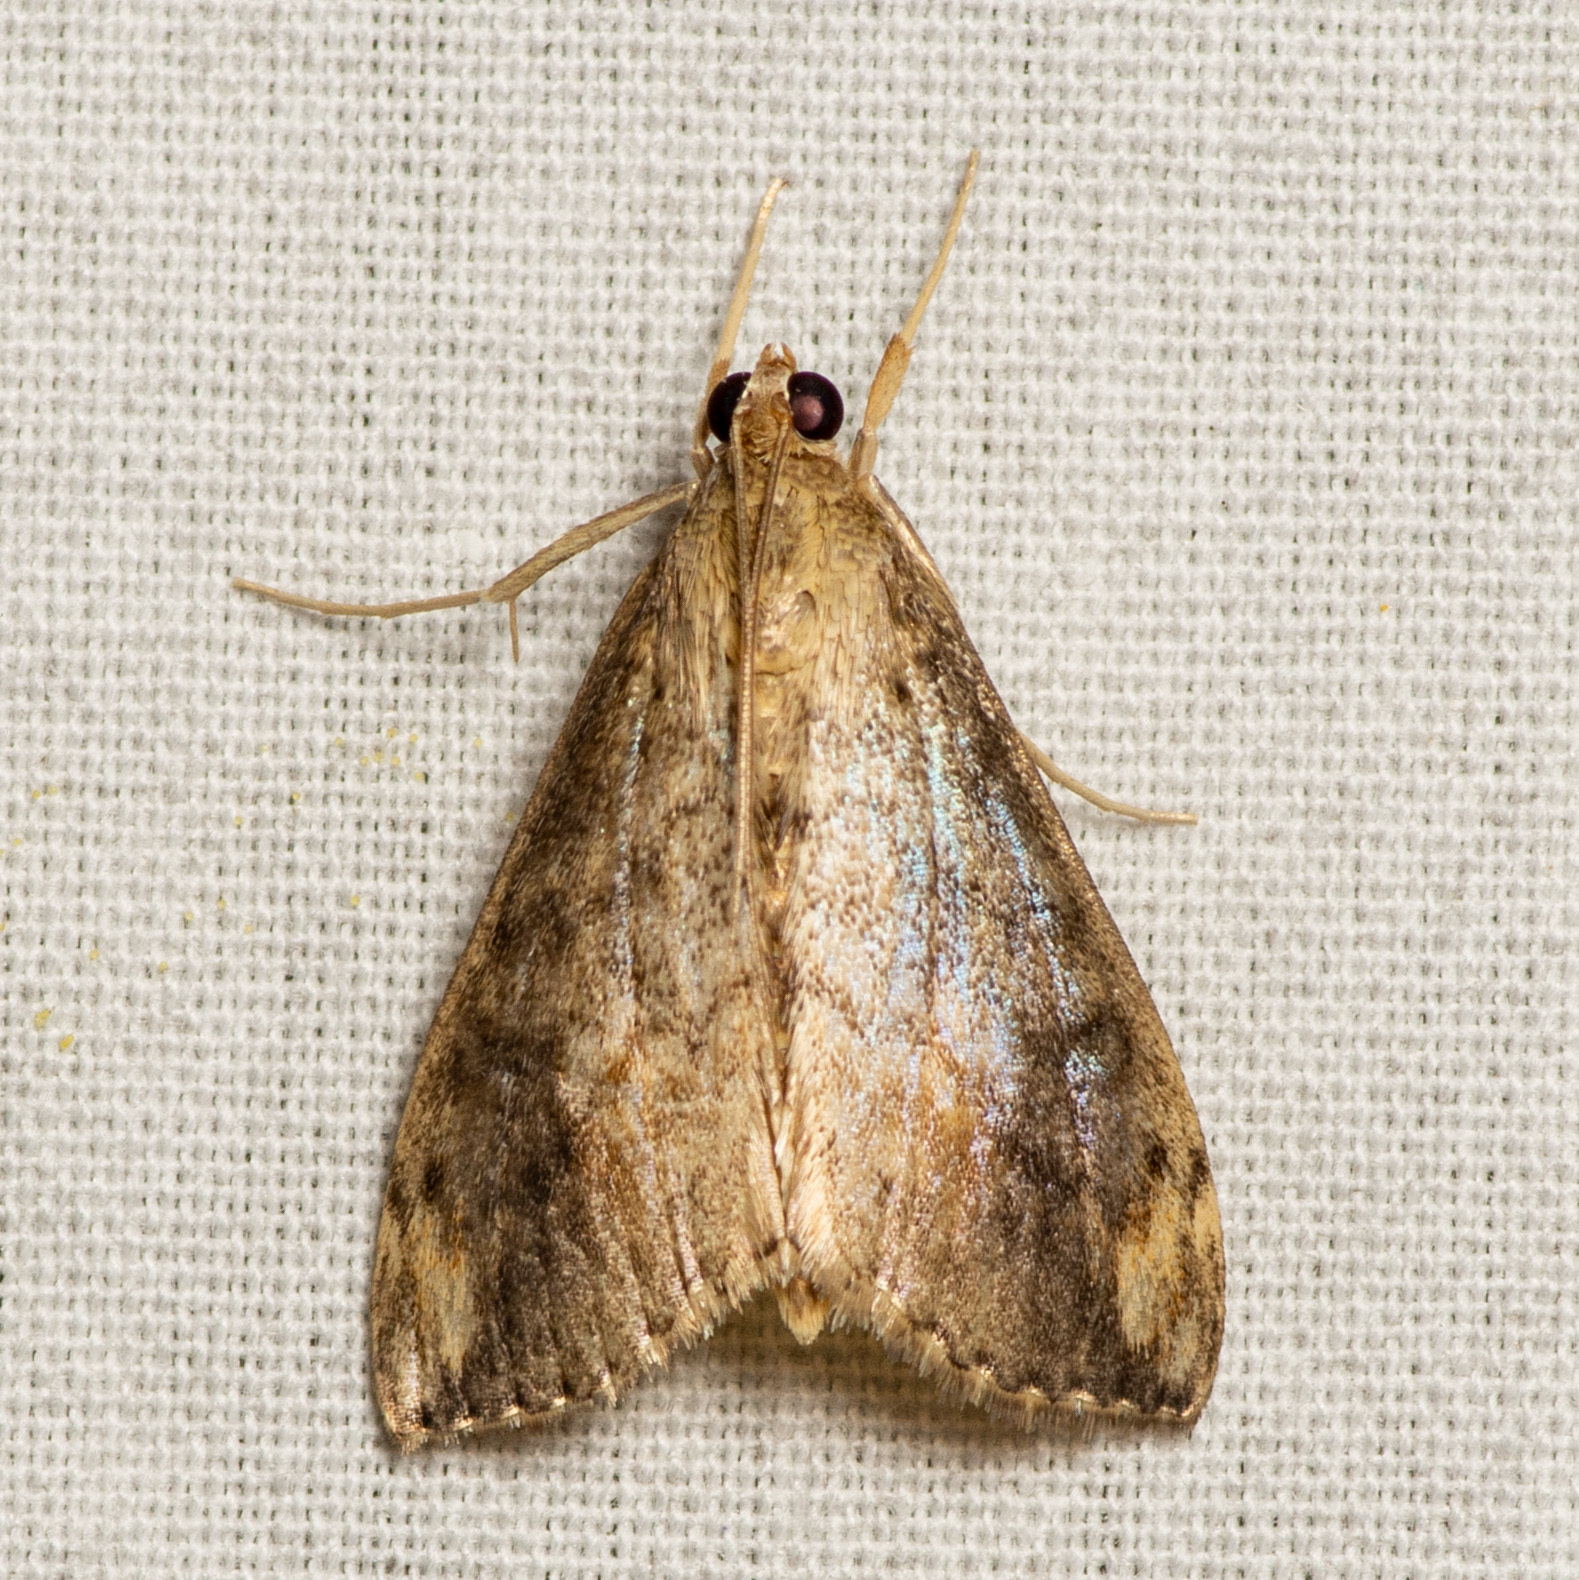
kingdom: Animalia
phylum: Arthropoda
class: Insecta
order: Lepidoptera
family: Crambidae
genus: Evergestis
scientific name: Evergestis rimosalis
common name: Cross-striped cabbageworm moth
